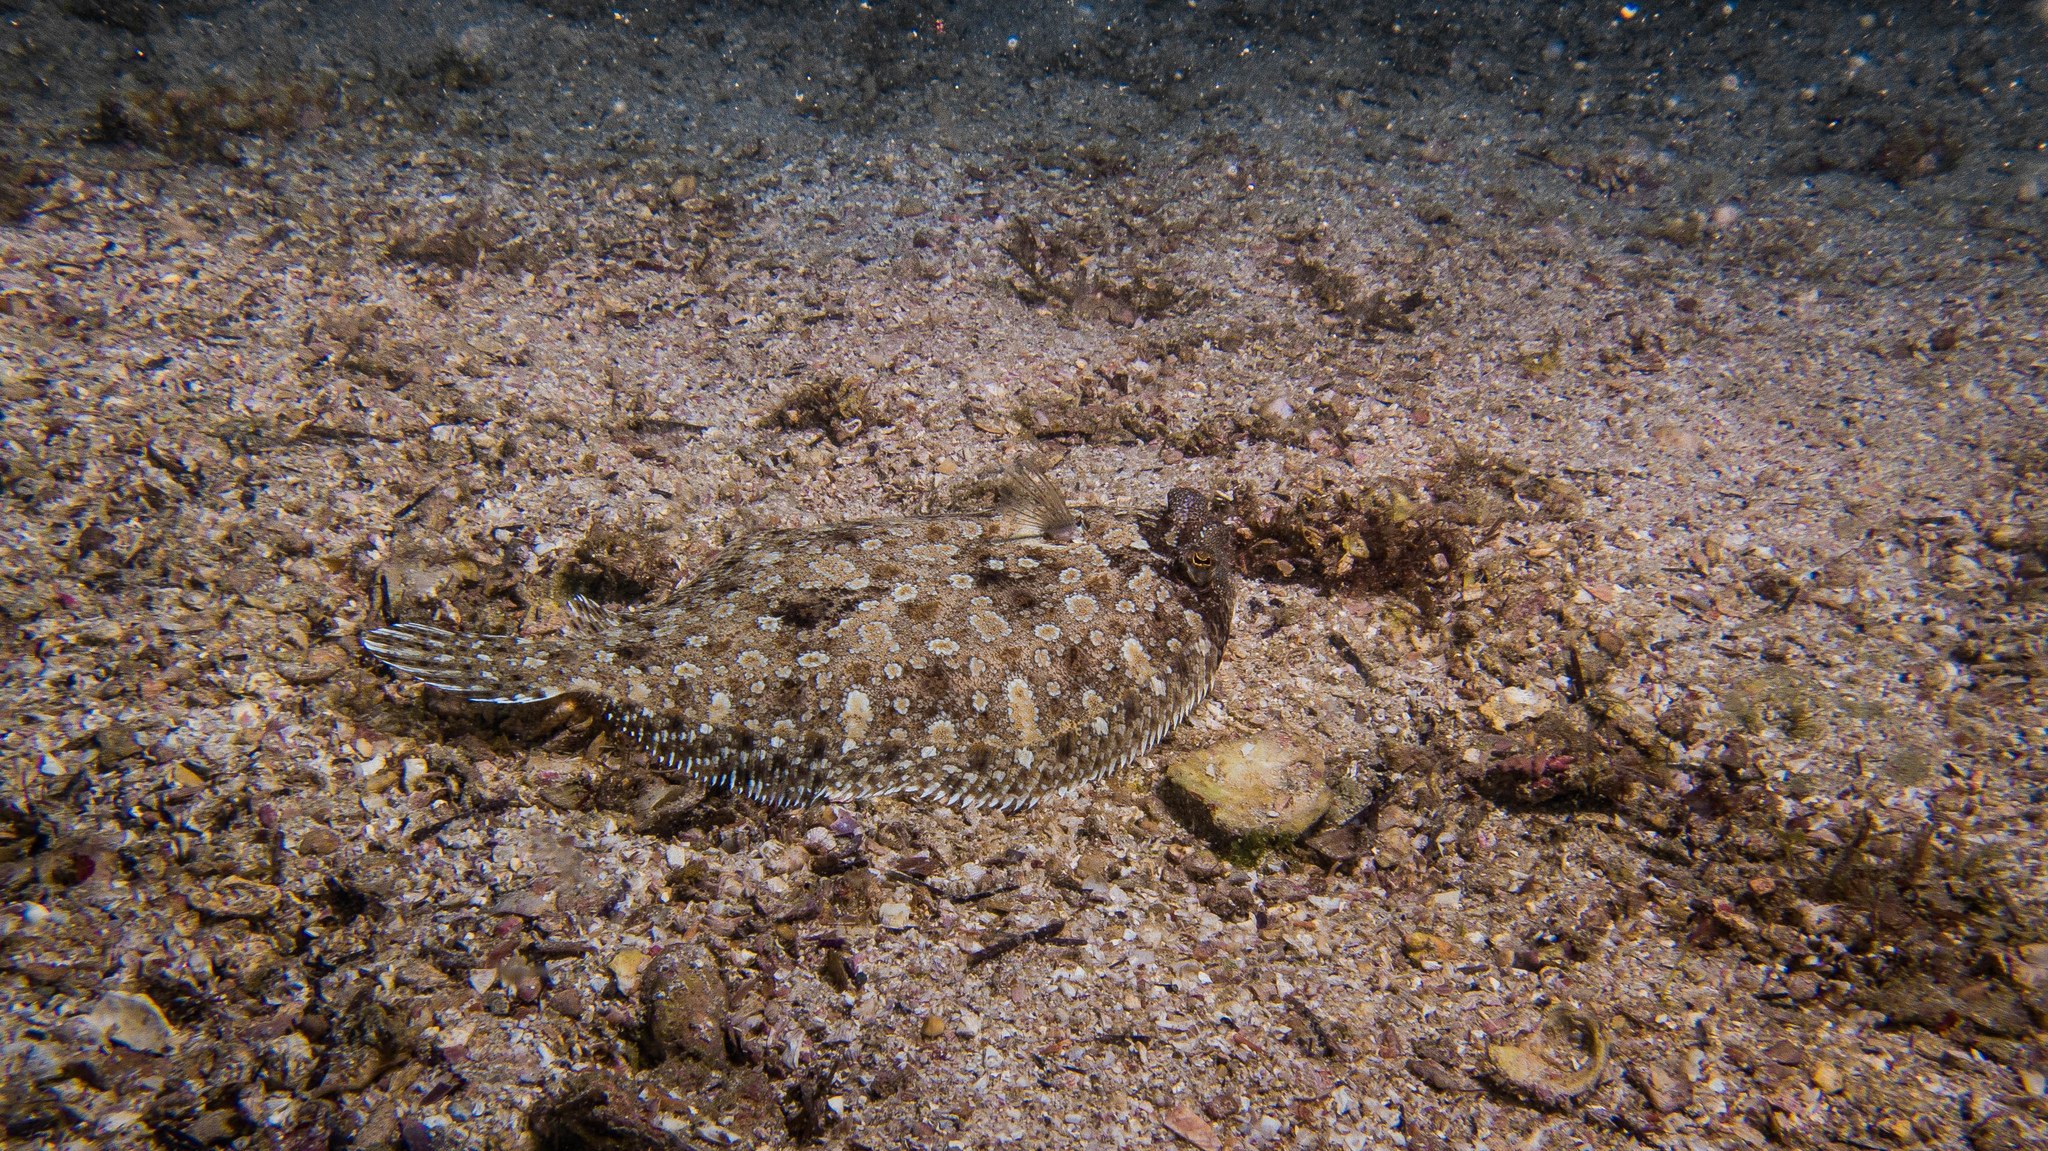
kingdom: Animalia
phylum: Chordata
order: Pleuronectiformes
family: Bothidae
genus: Bothus
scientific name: Bothus ocellatus
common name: Eyed flounder
